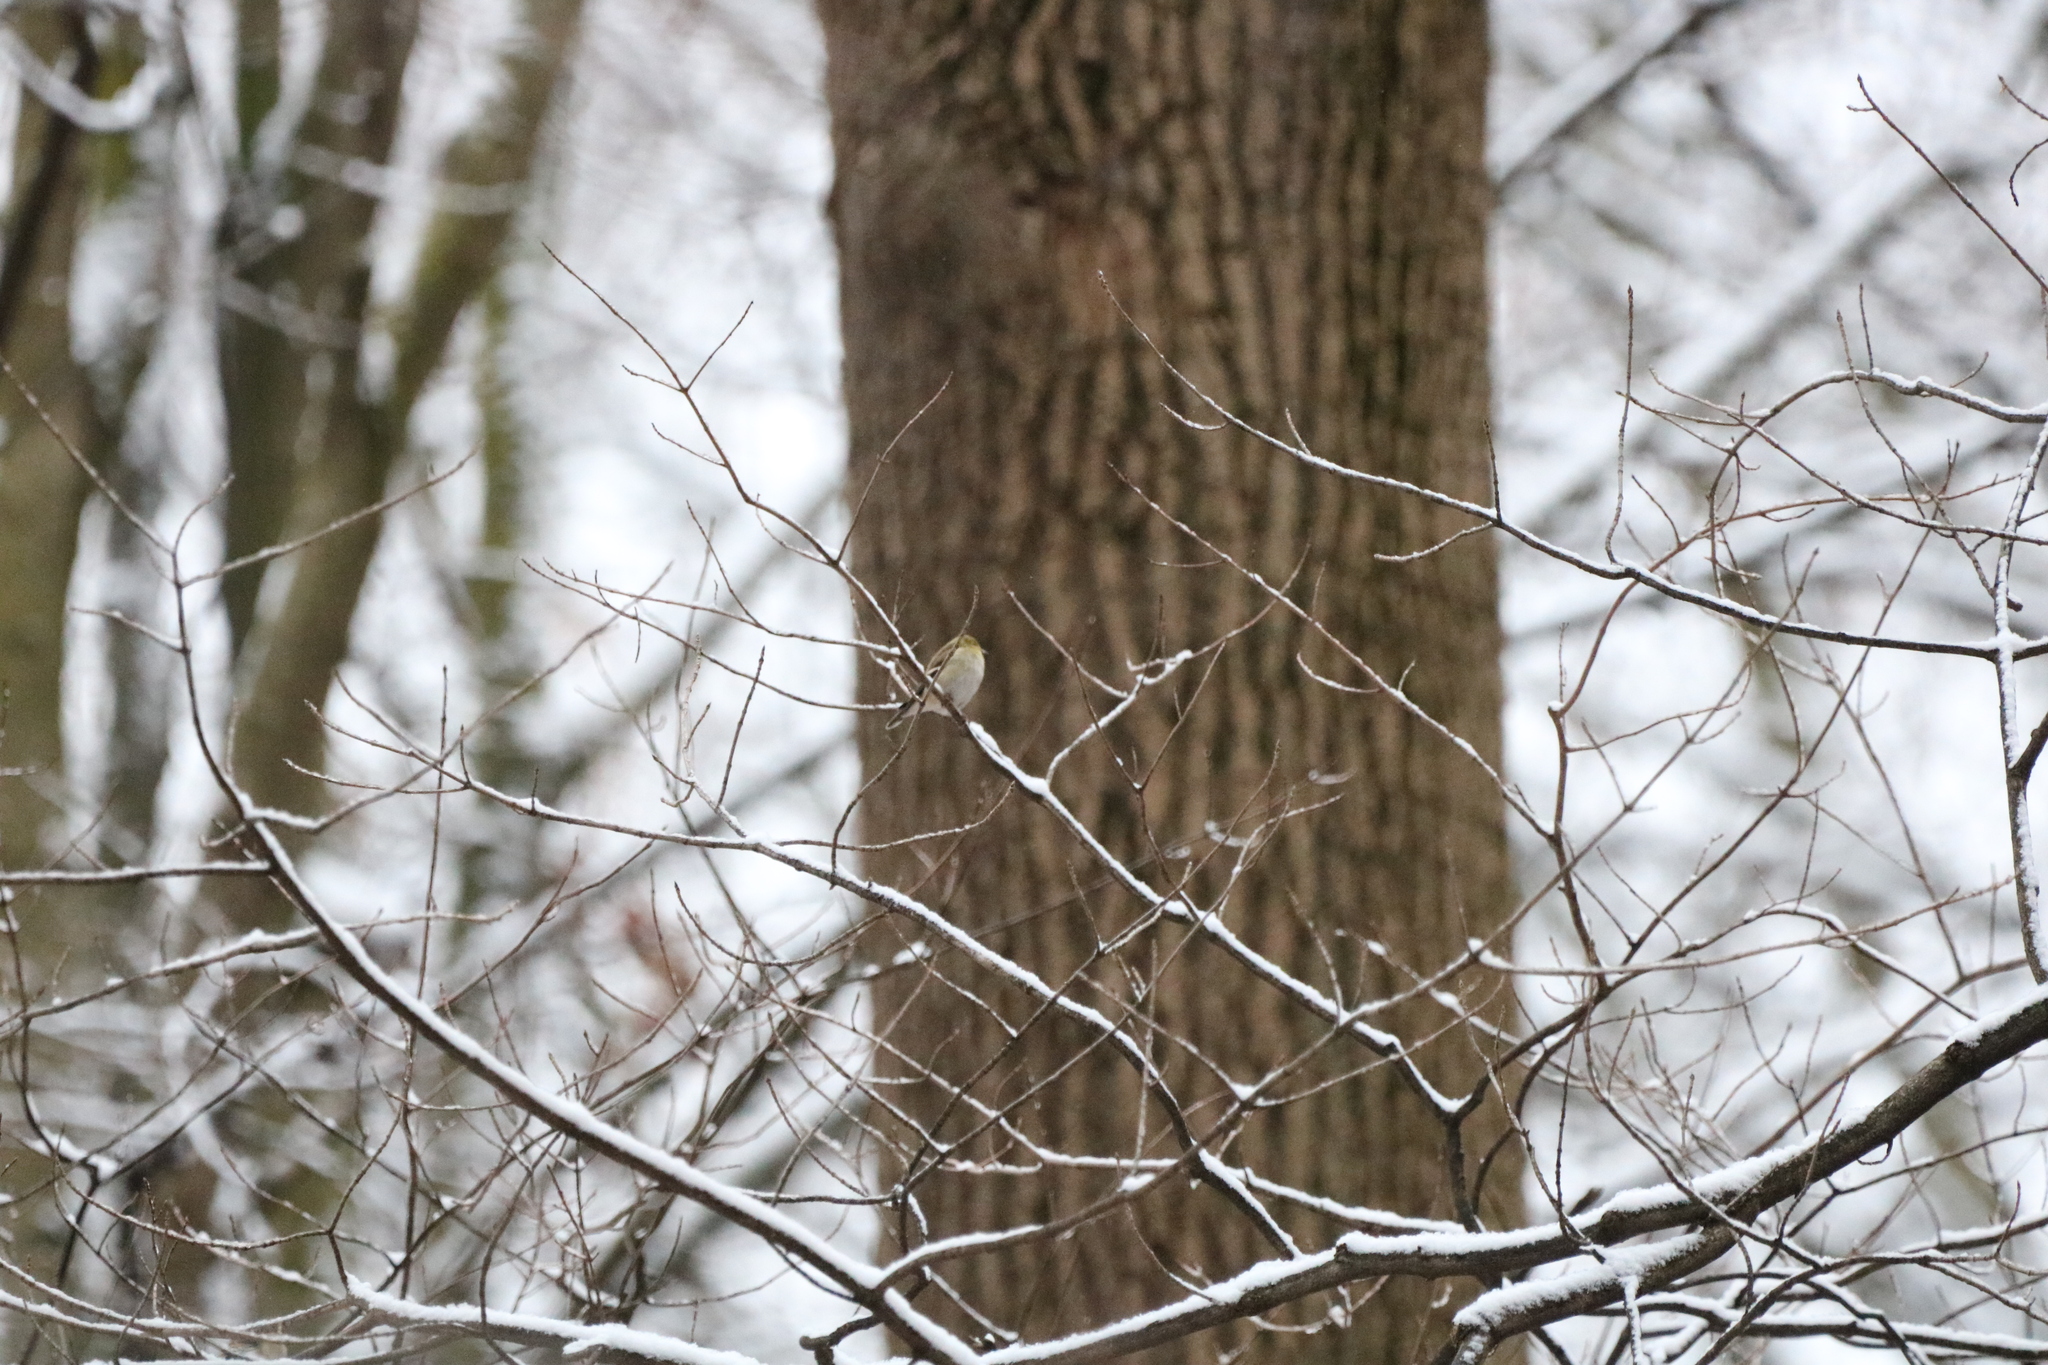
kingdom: Animalia
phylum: Chordata
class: Aves
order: Passeriformes
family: Fringillidae
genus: Spinus
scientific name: Spinus tristis
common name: American goldfinch
